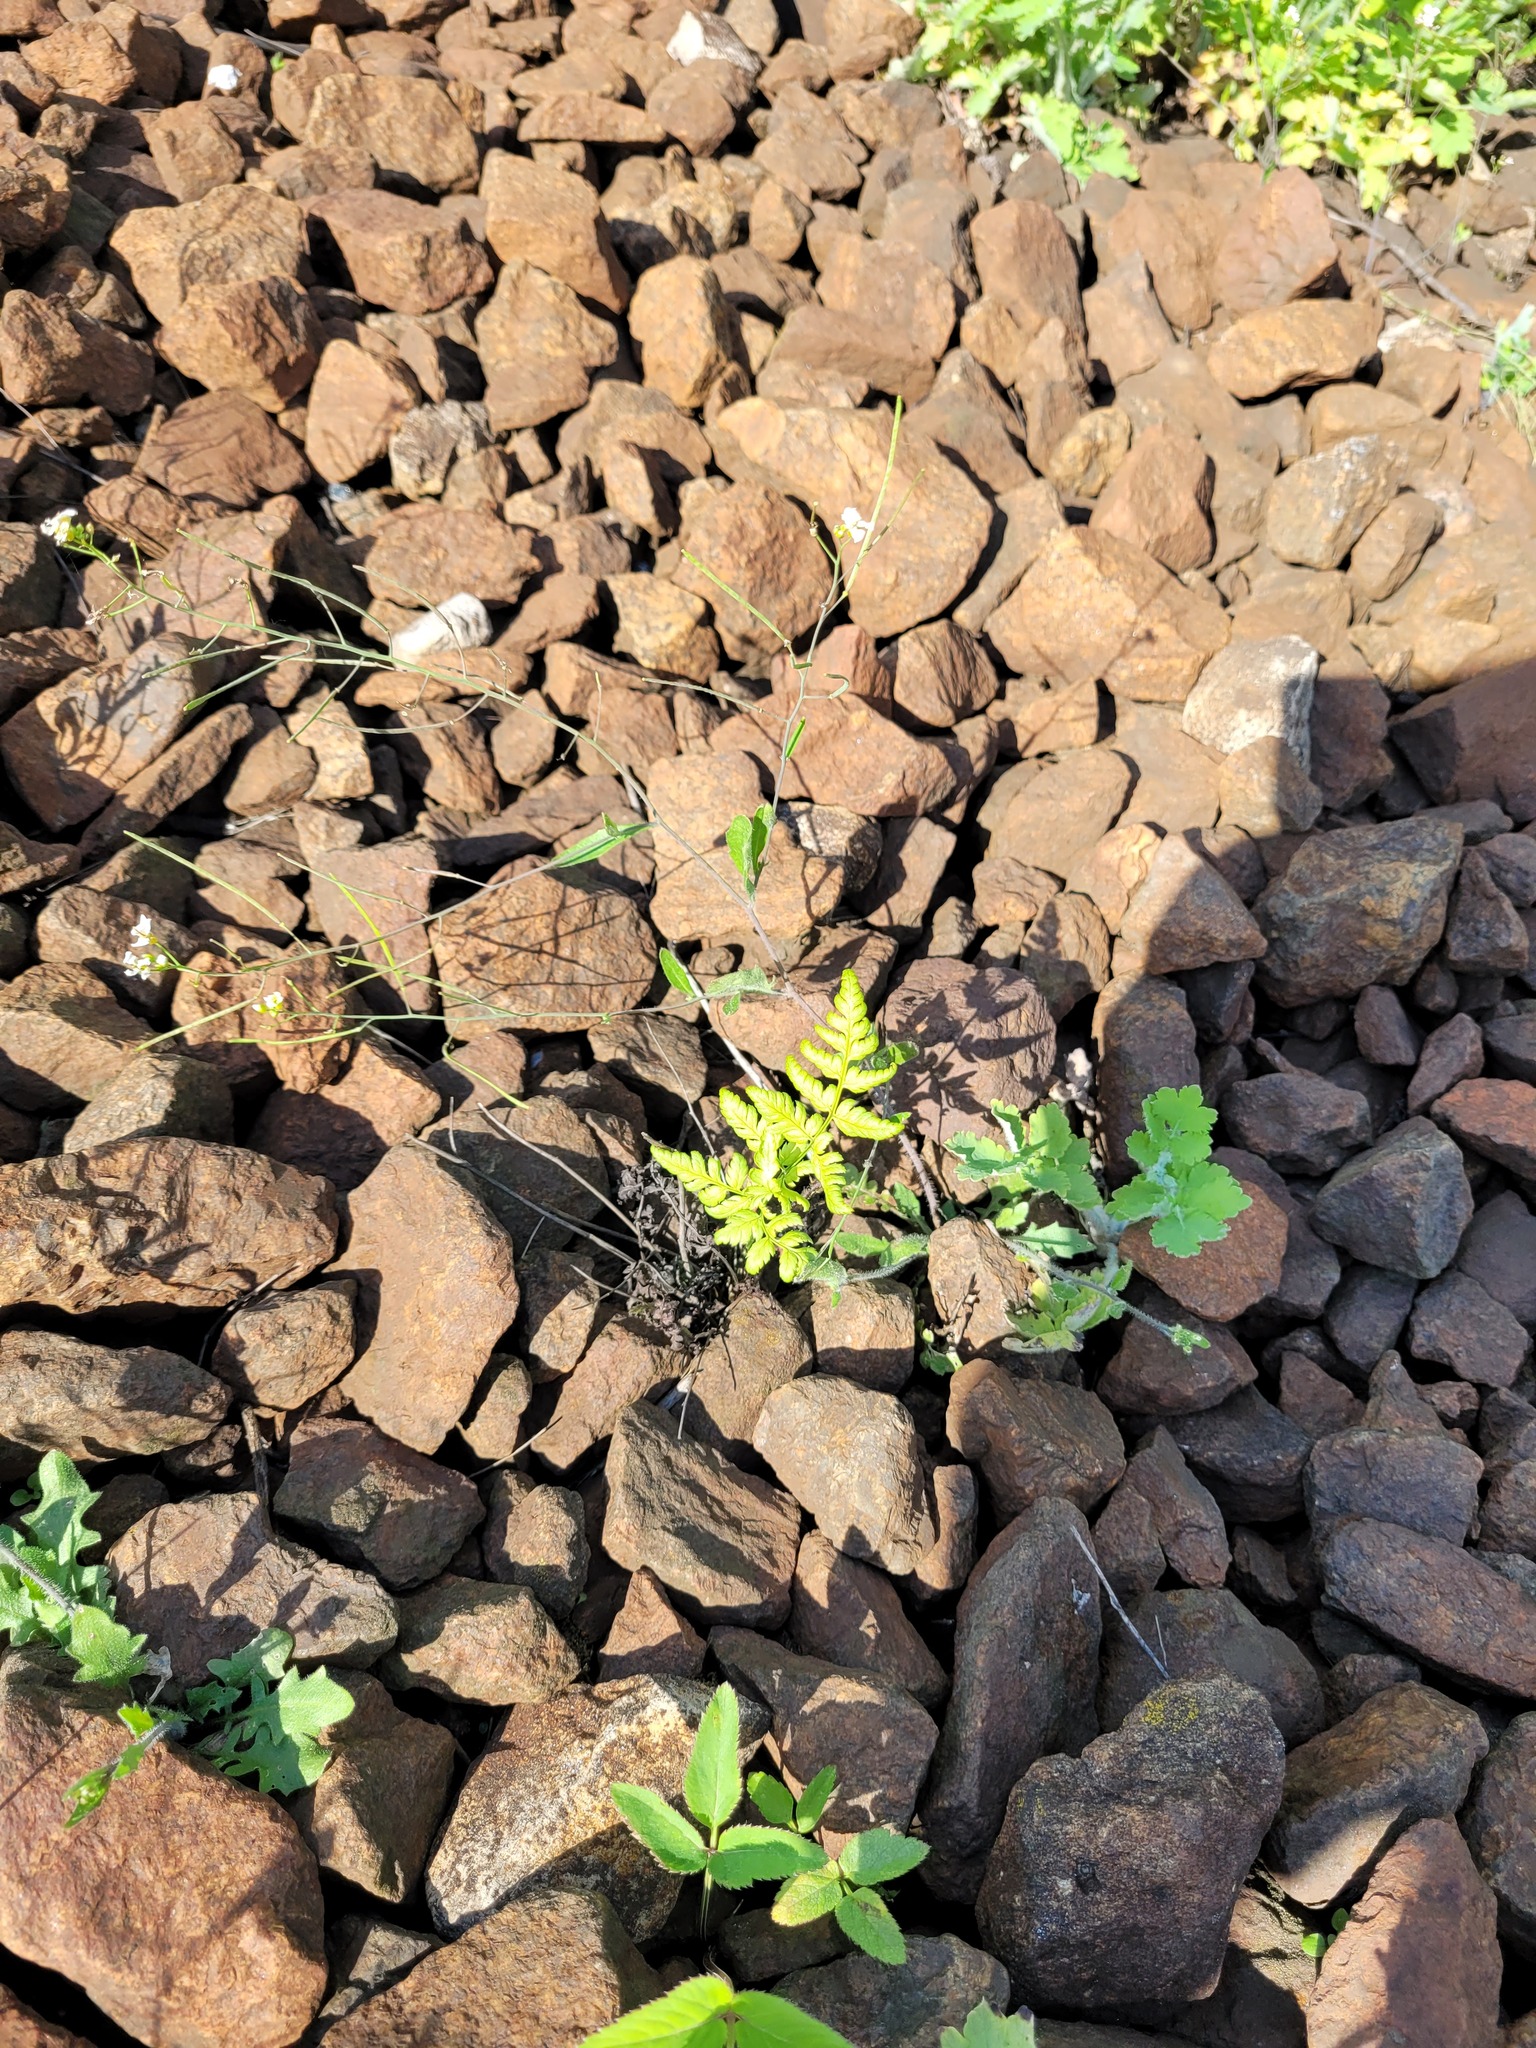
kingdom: Plantae
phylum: Tracheophyta
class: Polypodiopsida
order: Polypodiales
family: Dryopteridaceae
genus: Dryopteris
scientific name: Dryopteris carthusiana
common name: Narrow buckler-fern
